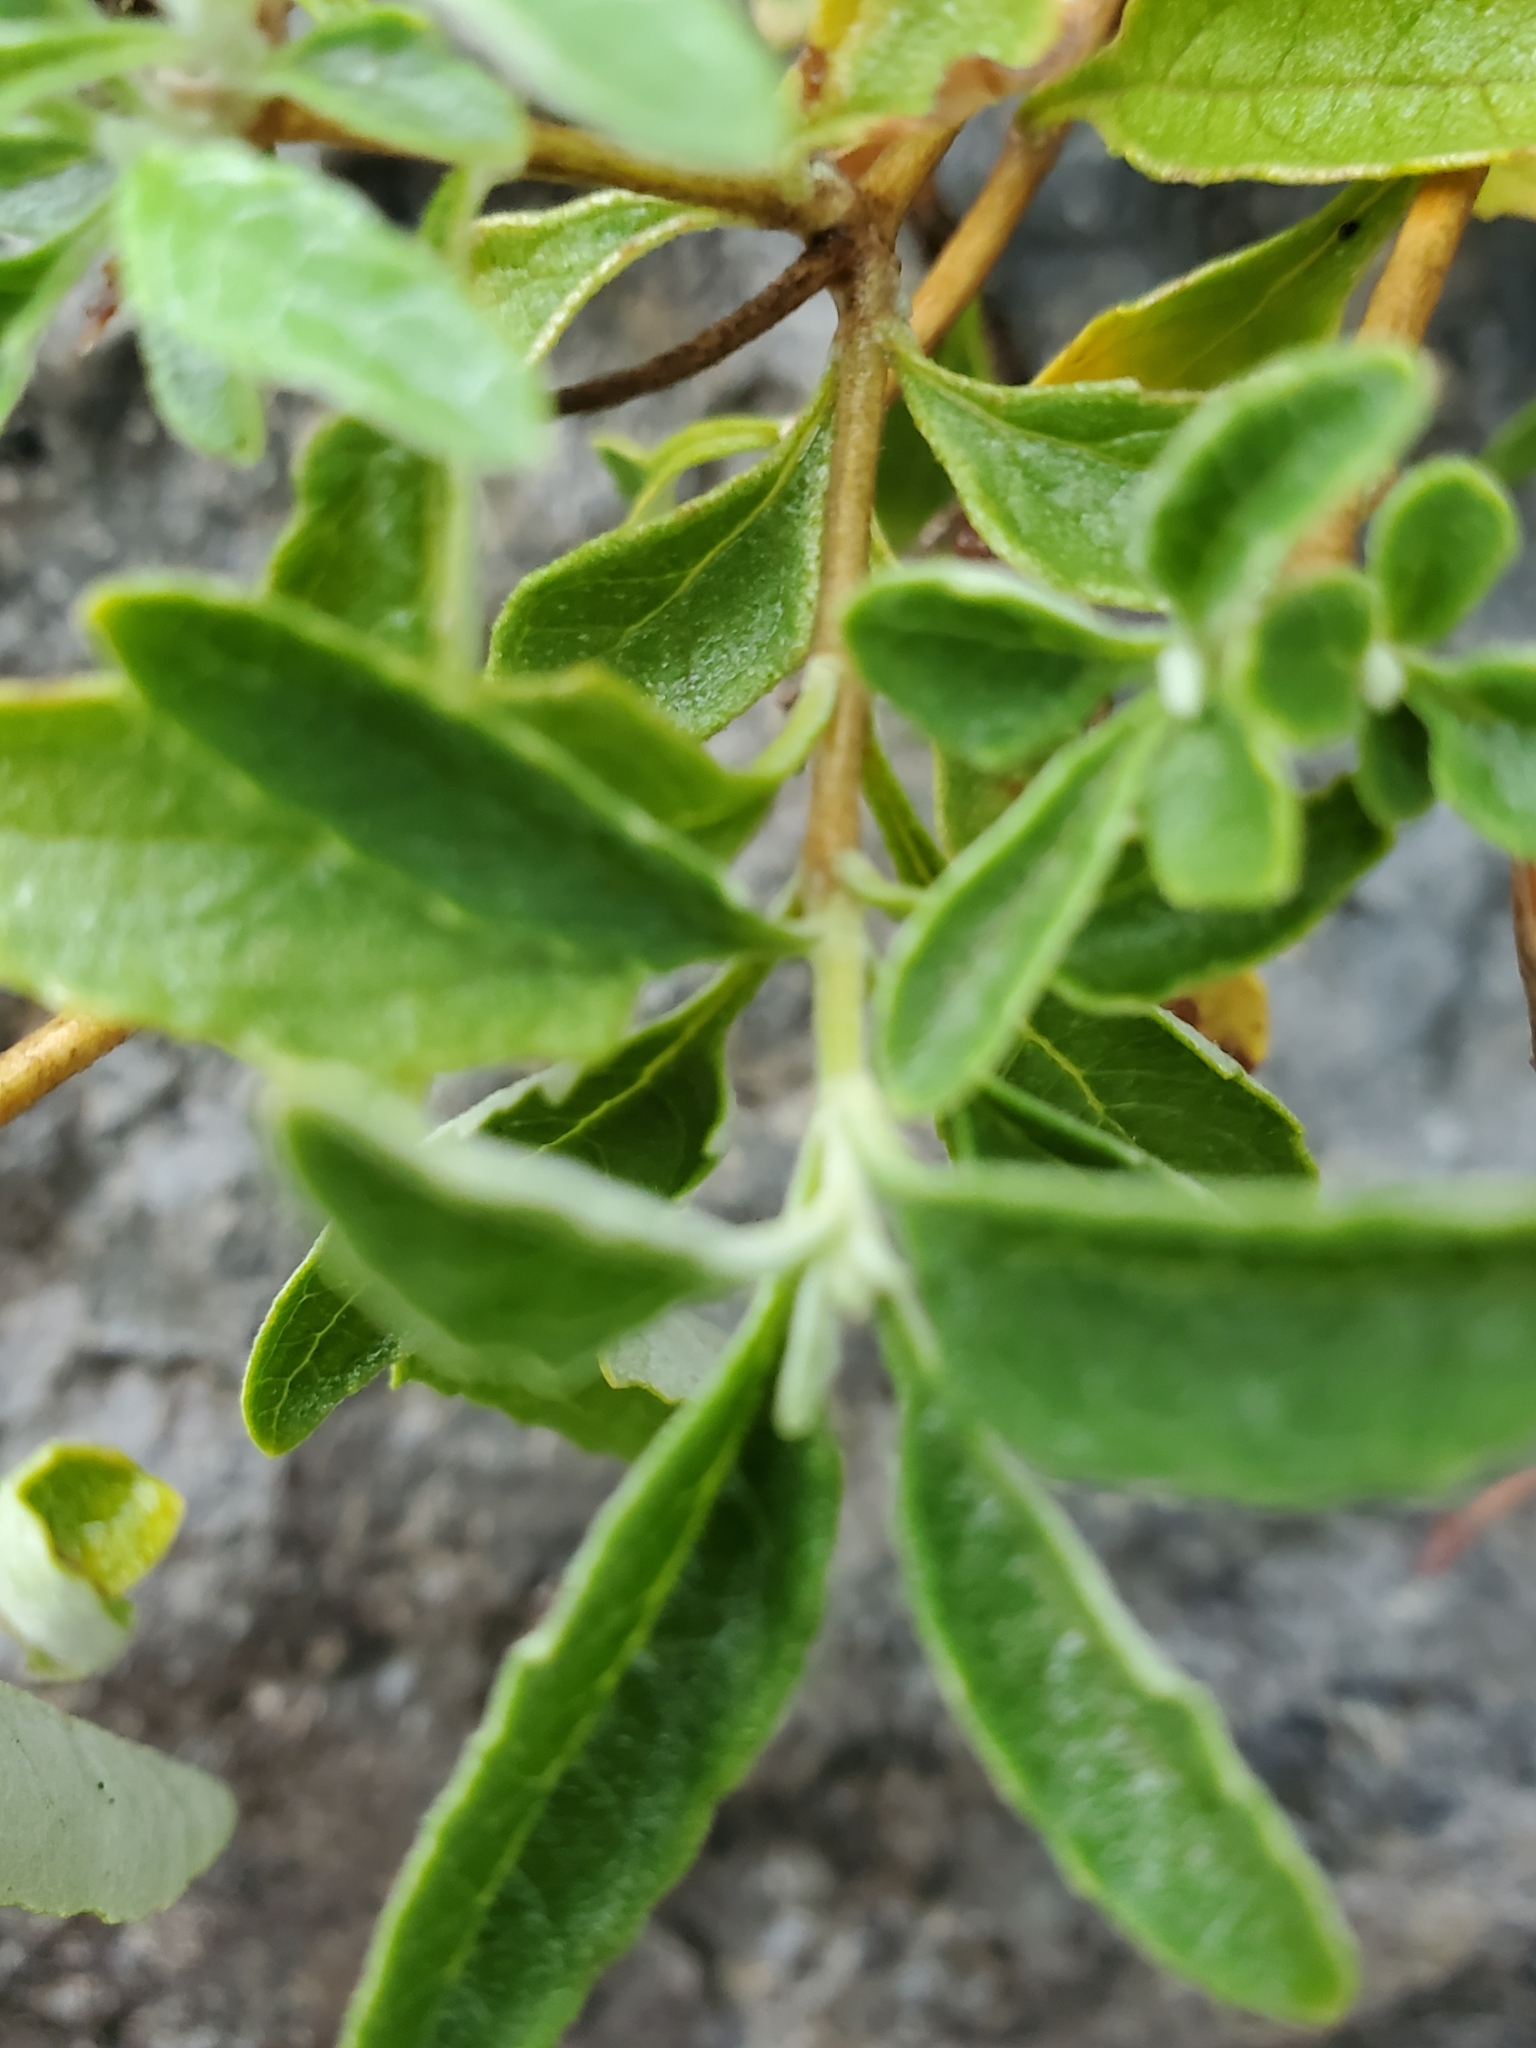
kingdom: Plantae
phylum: Tracheophyta
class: Magnoliopsida
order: Lamiales
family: Scrophulariaceae
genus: Buddleja
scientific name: Buddleja racemosa
